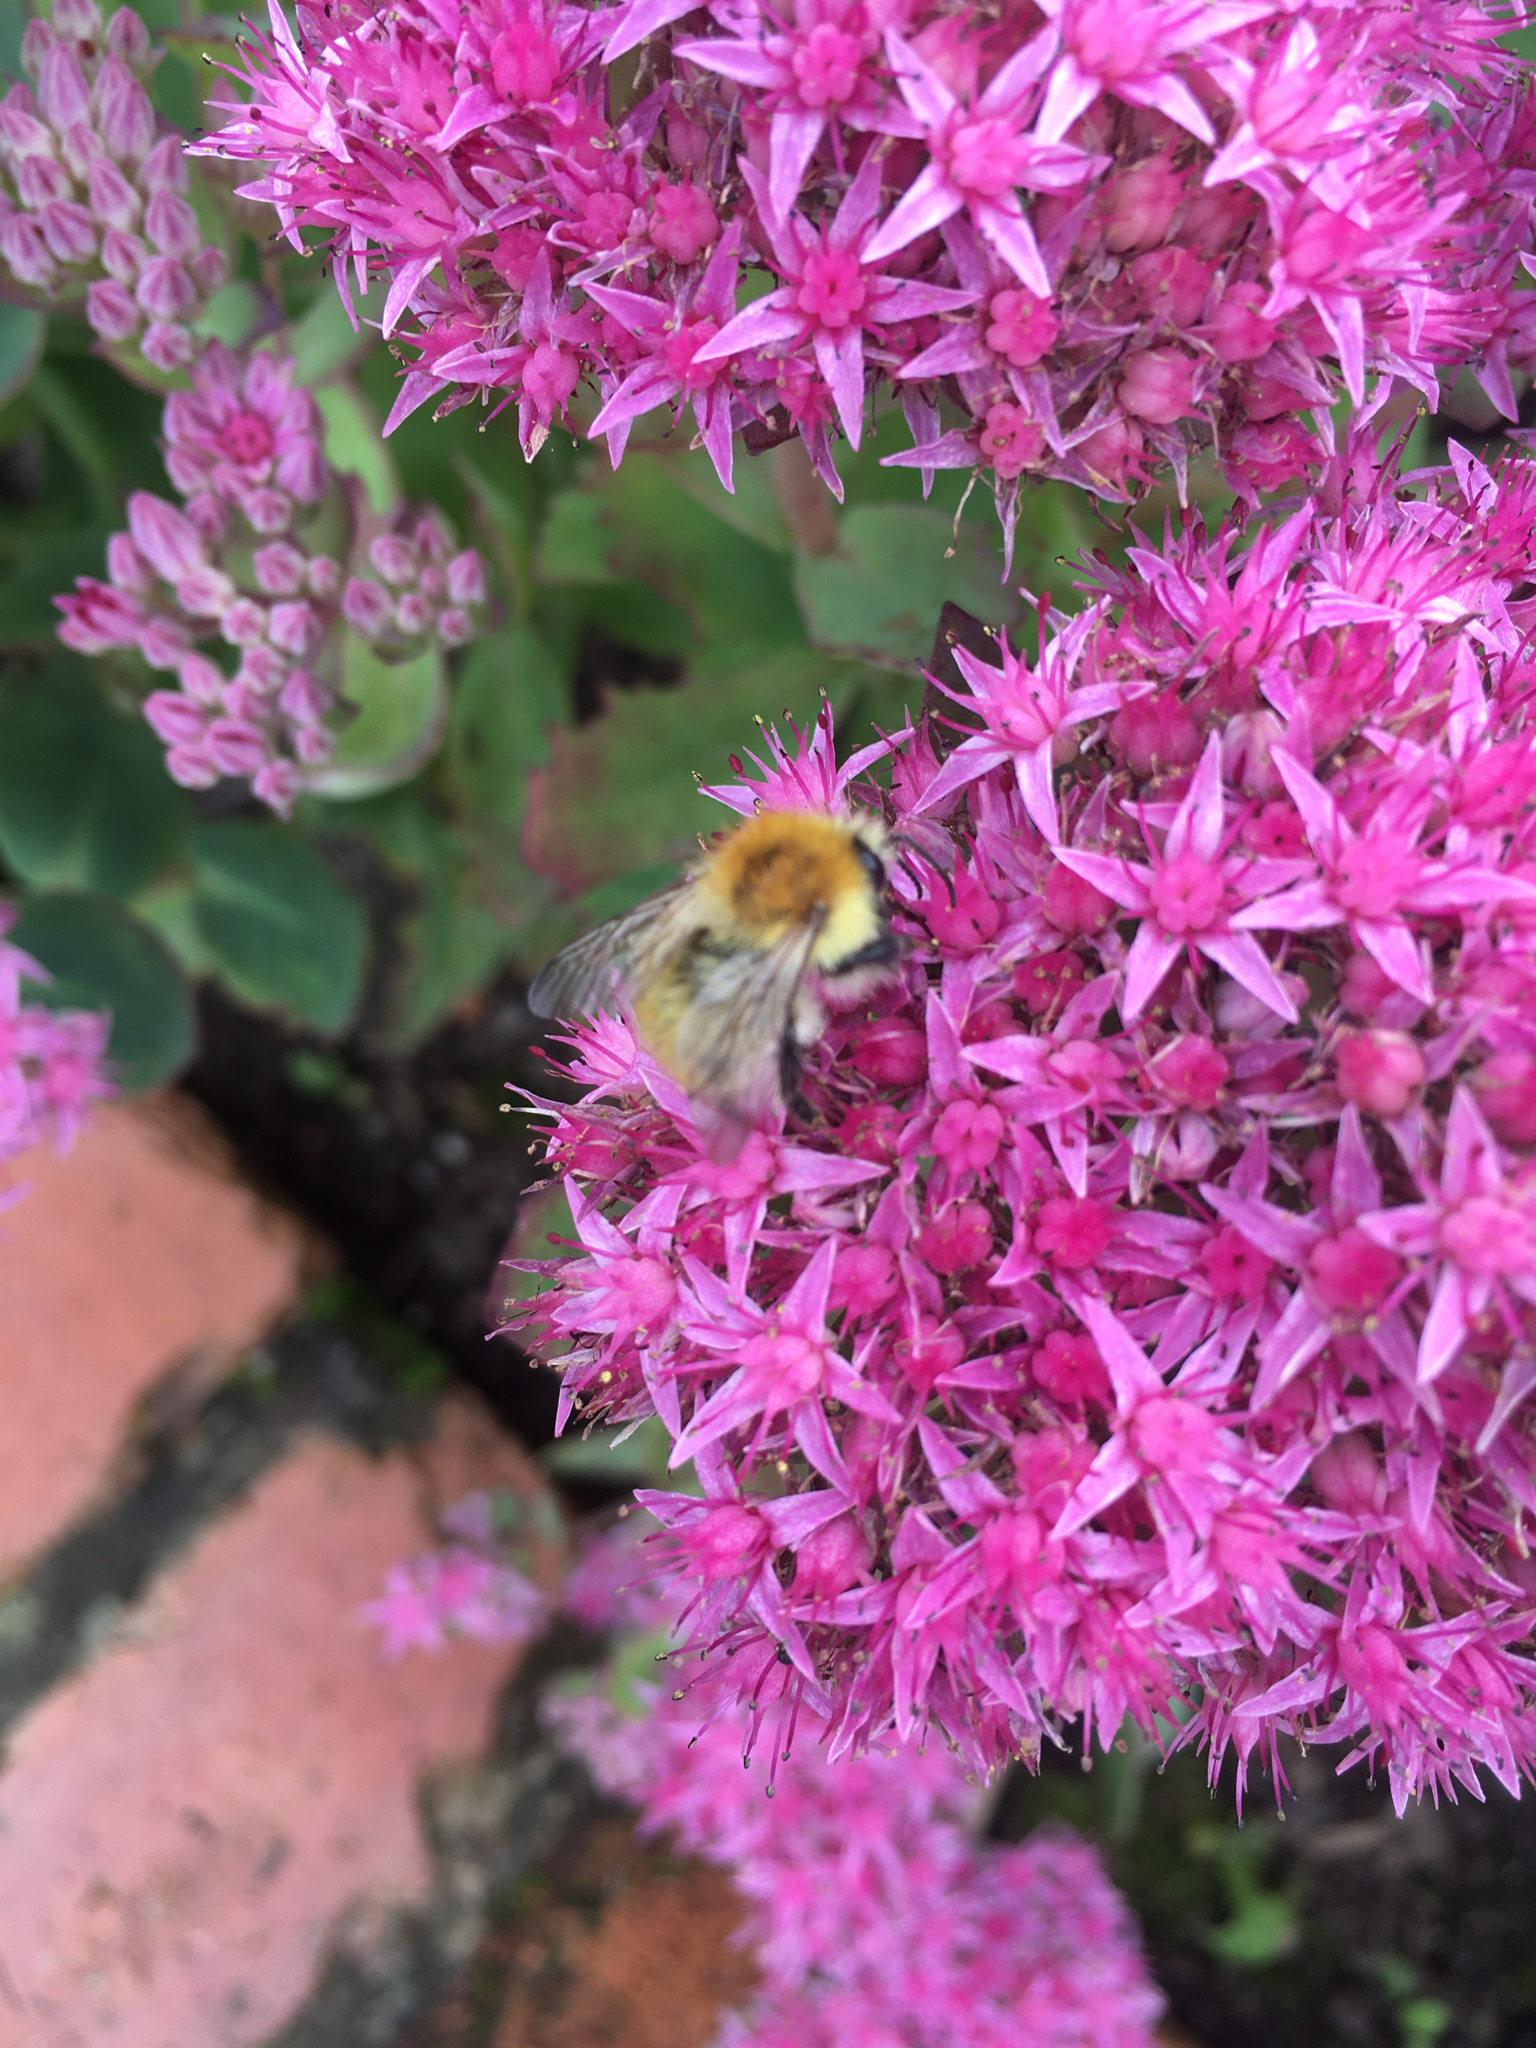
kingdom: Animalia
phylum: Arthropoda
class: Insecta
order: Hymenoptera
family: Apidae
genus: Bombus
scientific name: Bombus pascuorum
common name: Common carder bee
